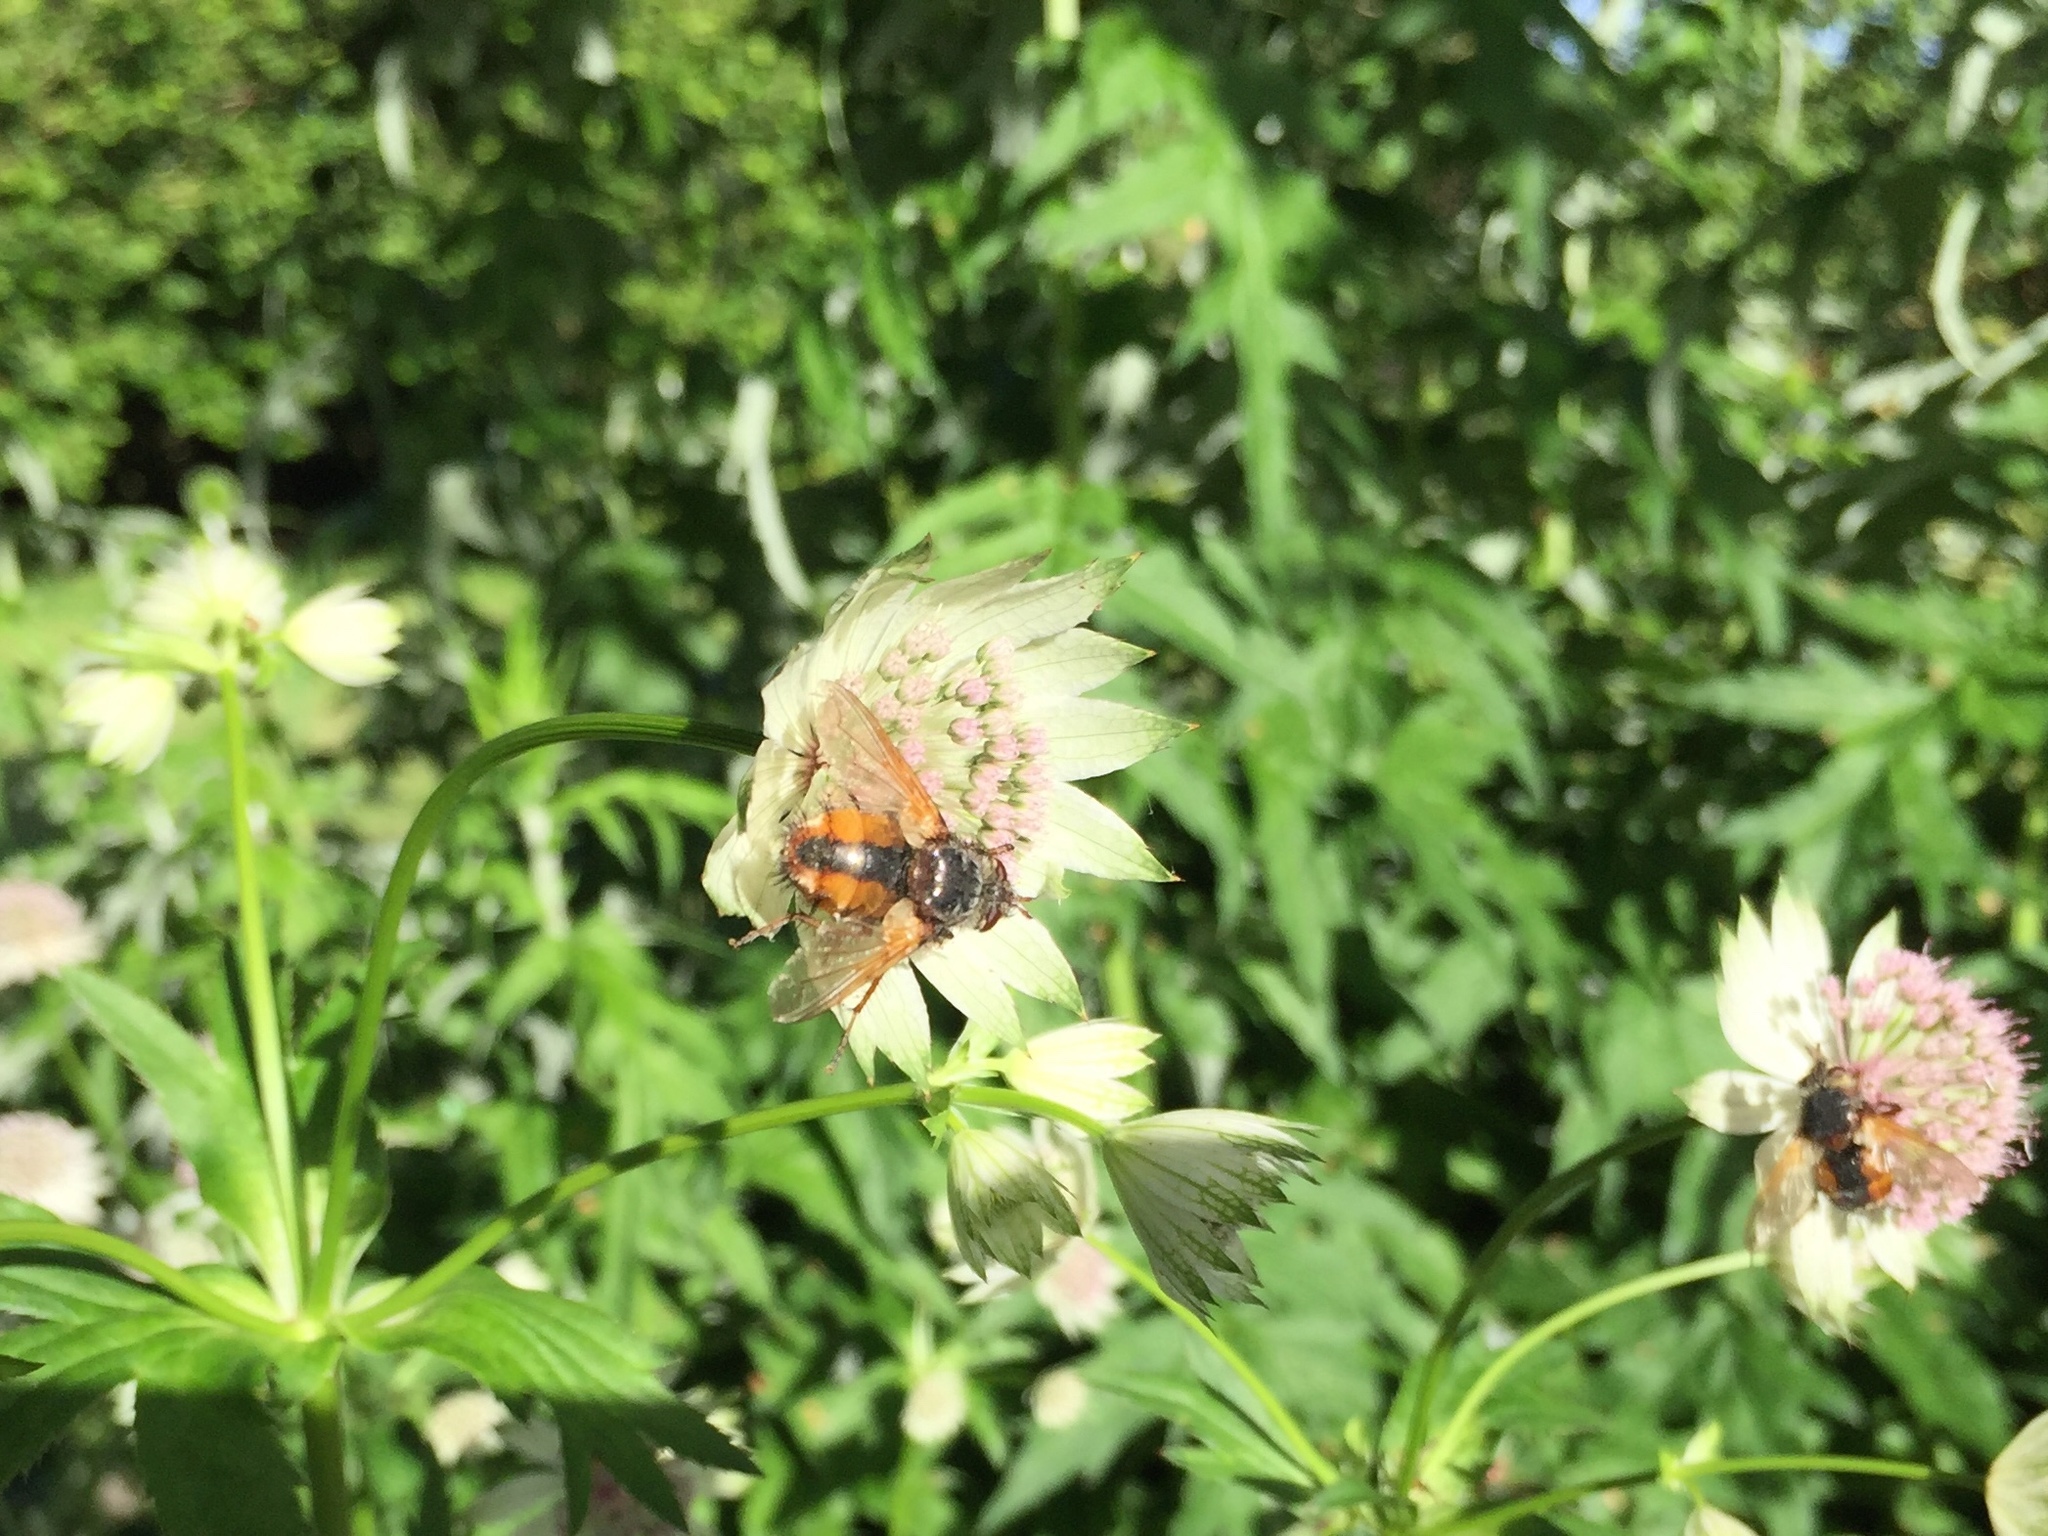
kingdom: Animalia
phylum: Arthropoda
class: Insecta
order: Diptera
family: Tachinidae
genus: Tachina
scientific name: Tachina fera
